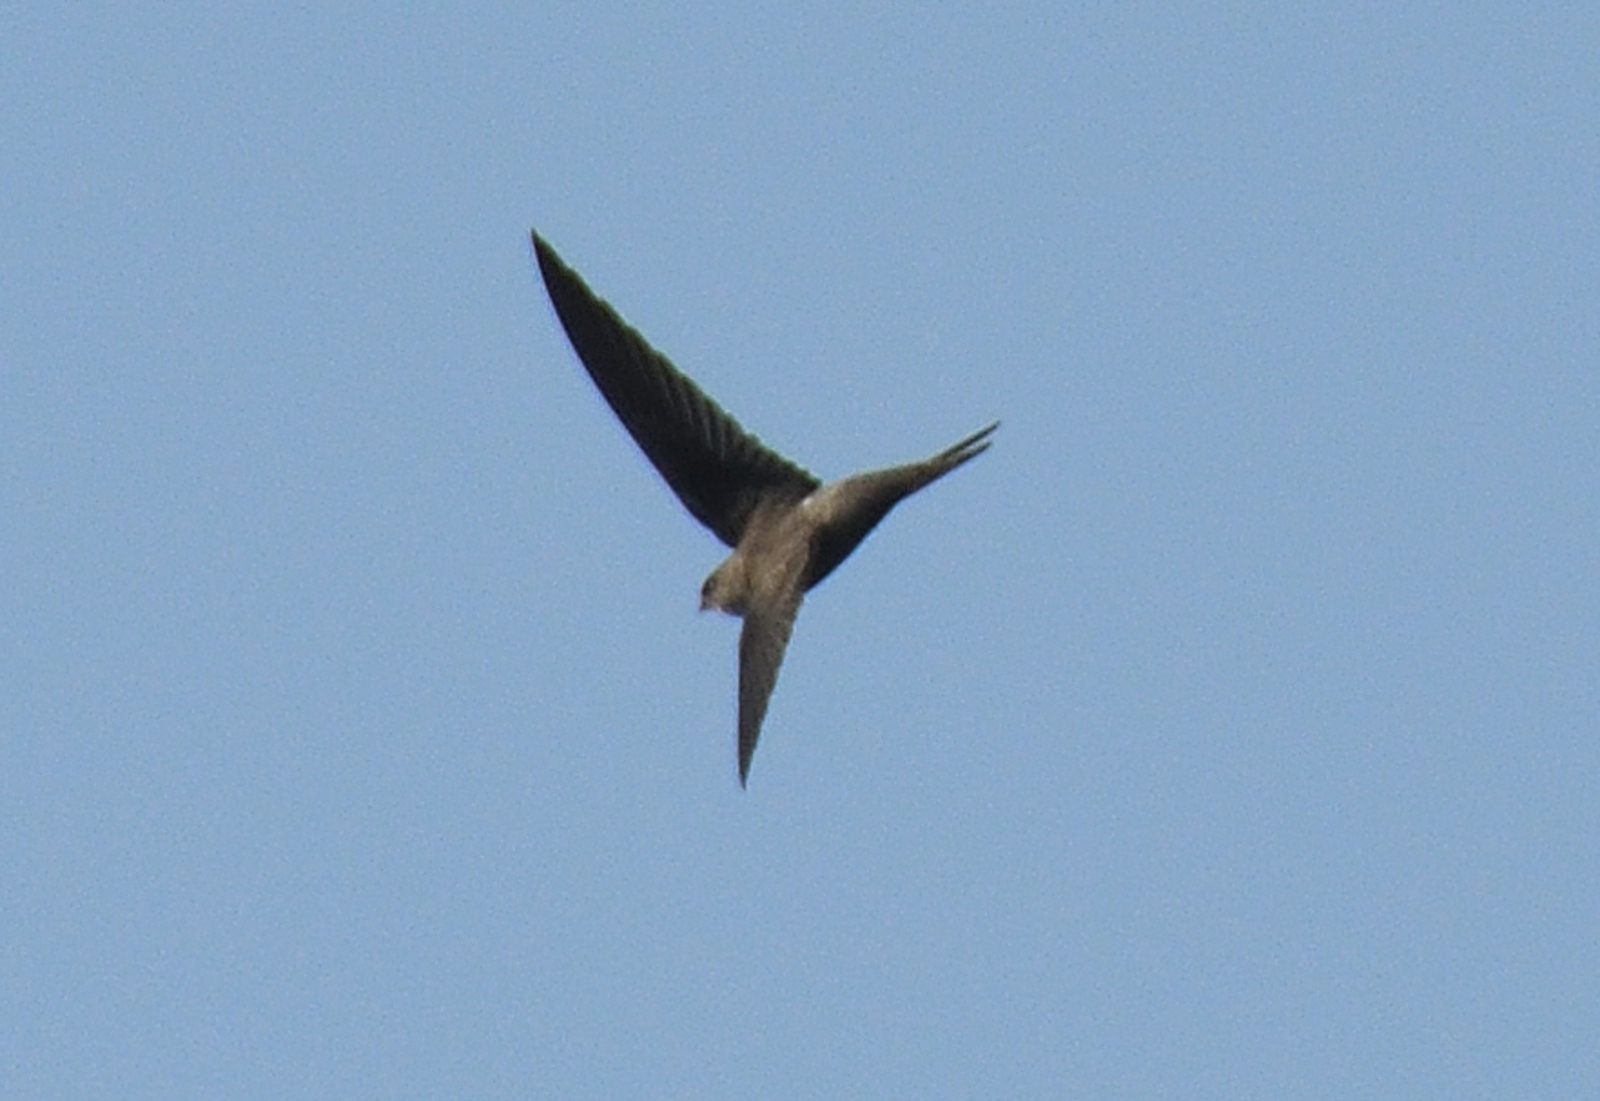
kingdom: Animalia
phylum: Chordata
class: Aves
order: Apodiformes
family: Apodidae
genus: Cypsiurus
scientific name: Cypsiurus balasiensis
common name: Asian palm swift
